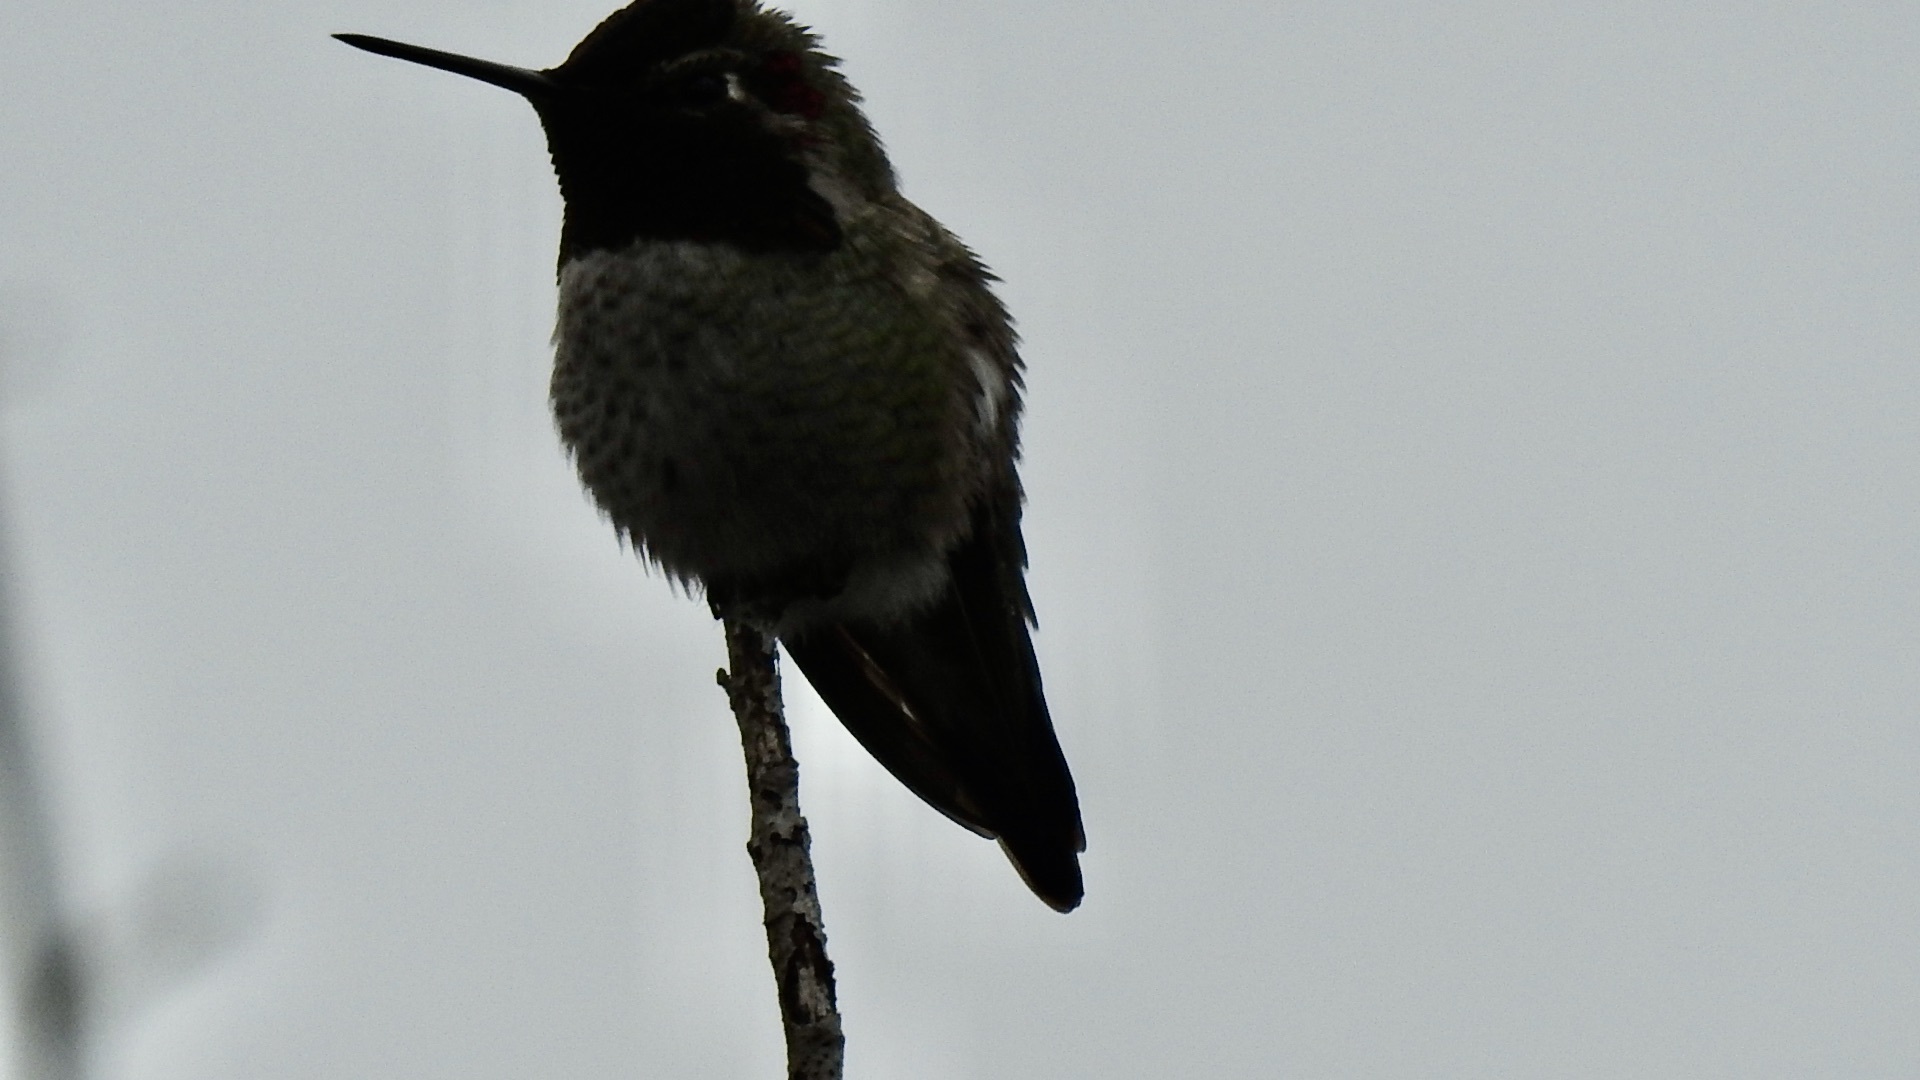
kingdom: Animalia
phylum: Chordata
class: Aves
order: Apodiformes
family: Trochilidae
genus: Calypte
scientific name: Calypte anna
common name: Anna's hummingbird
